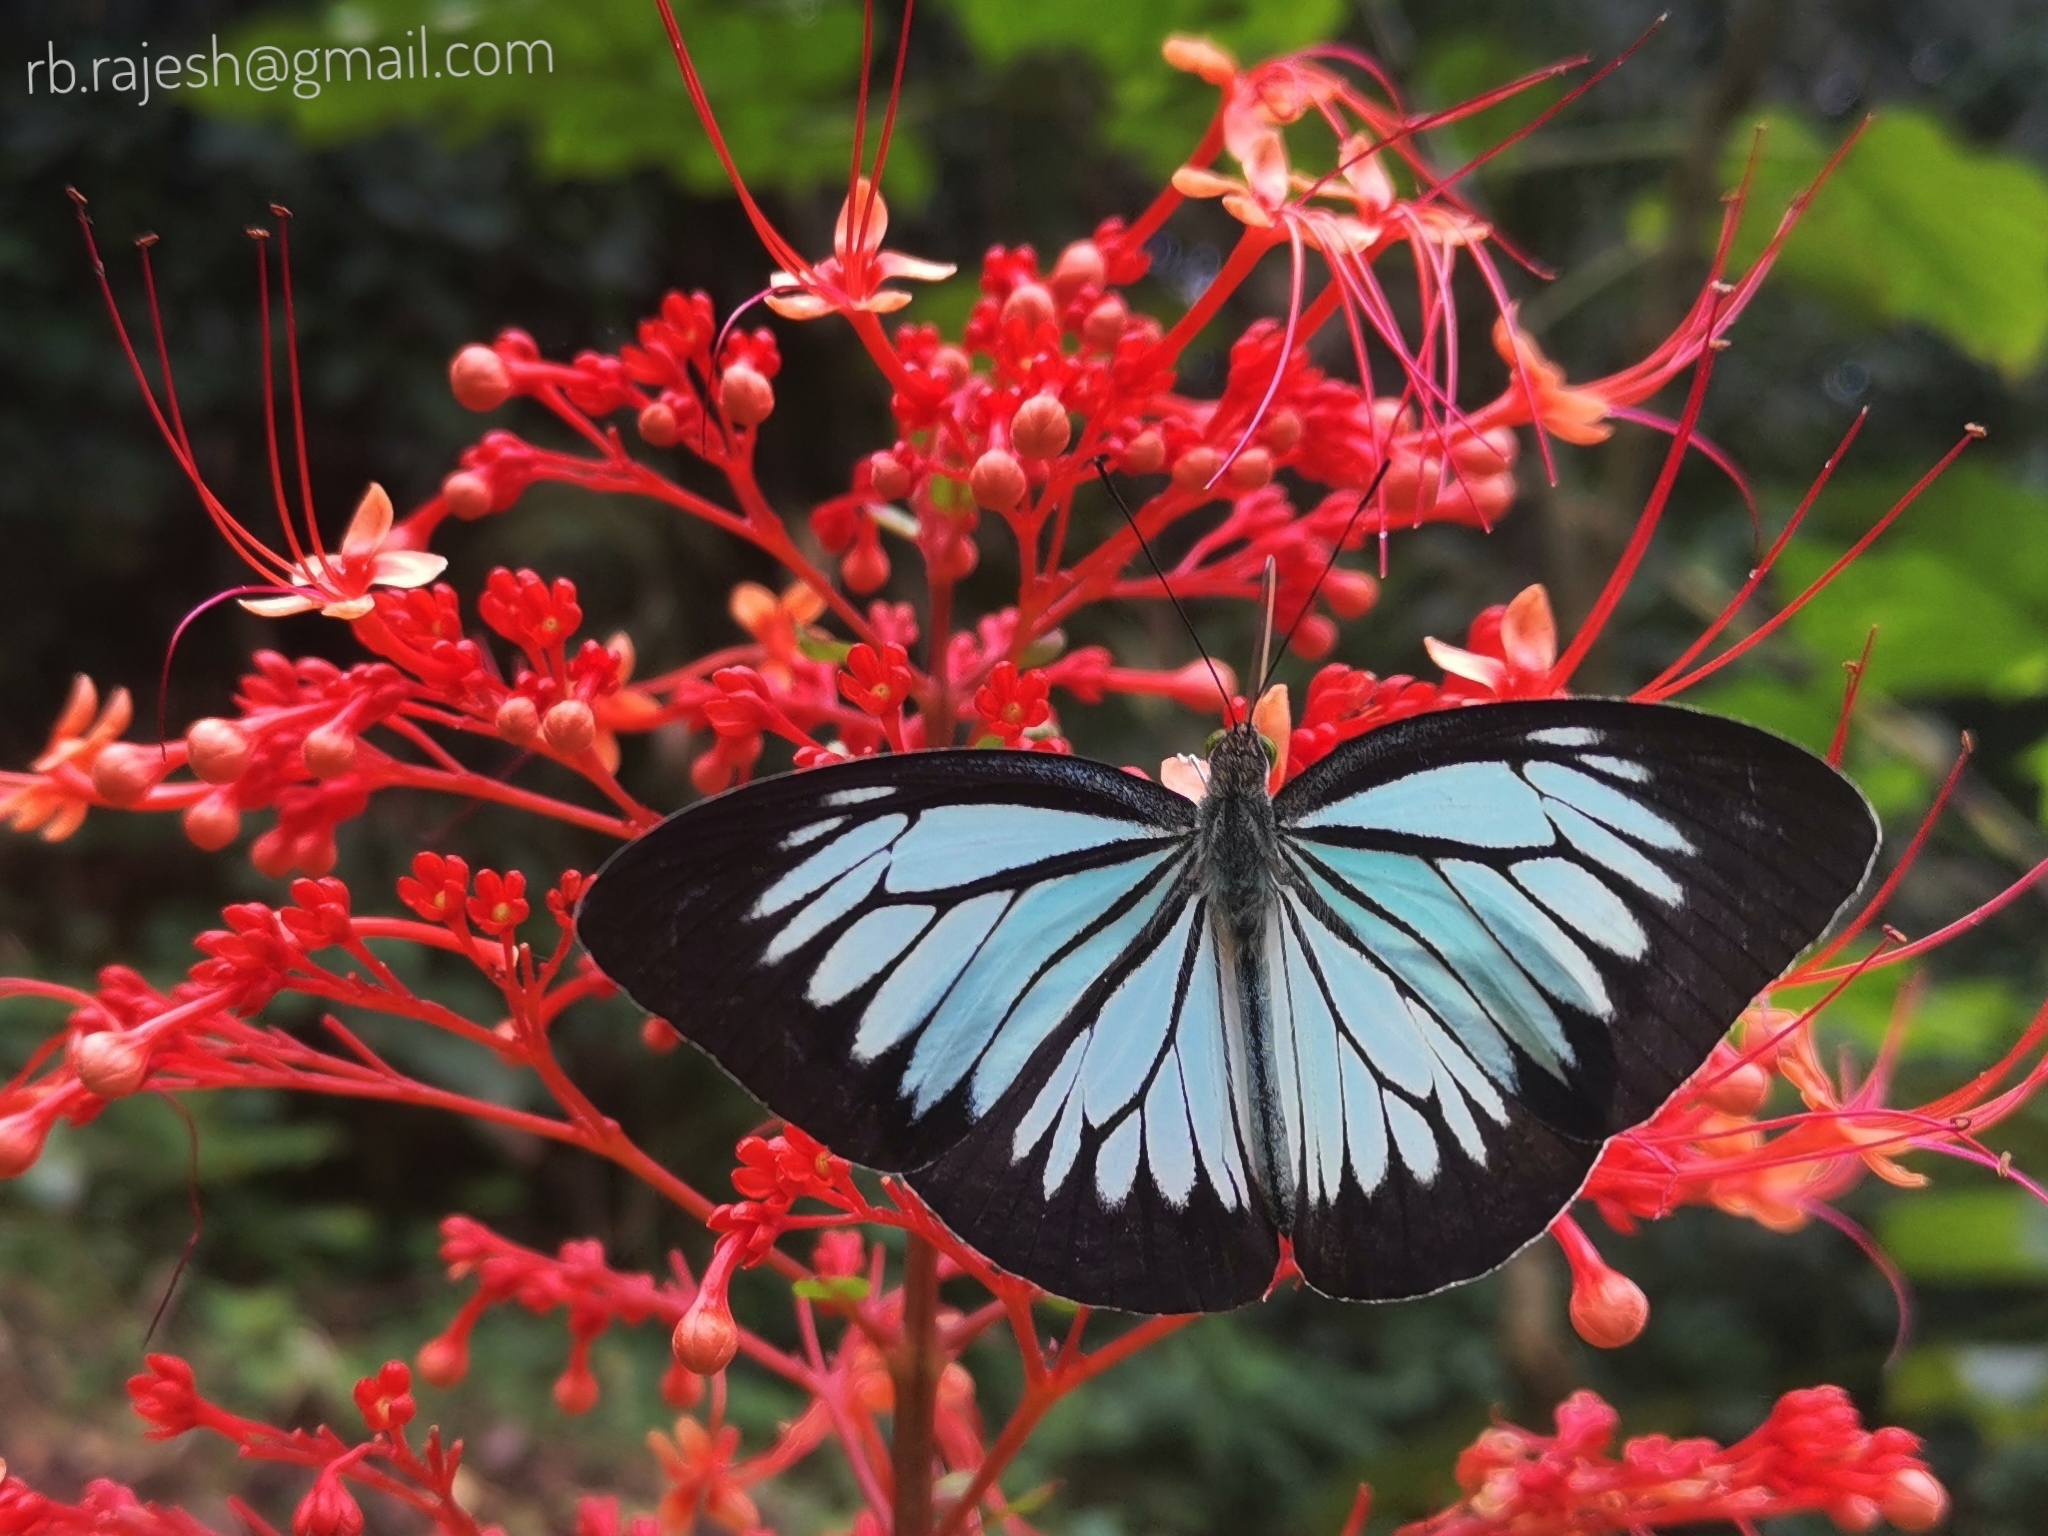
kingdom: Animalia
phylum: Arthropoda
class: Insecta
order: Lepidoptera
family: Pieridae
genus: Pareronia
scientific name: Pareronia ceylanica
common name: Dark wanderer
